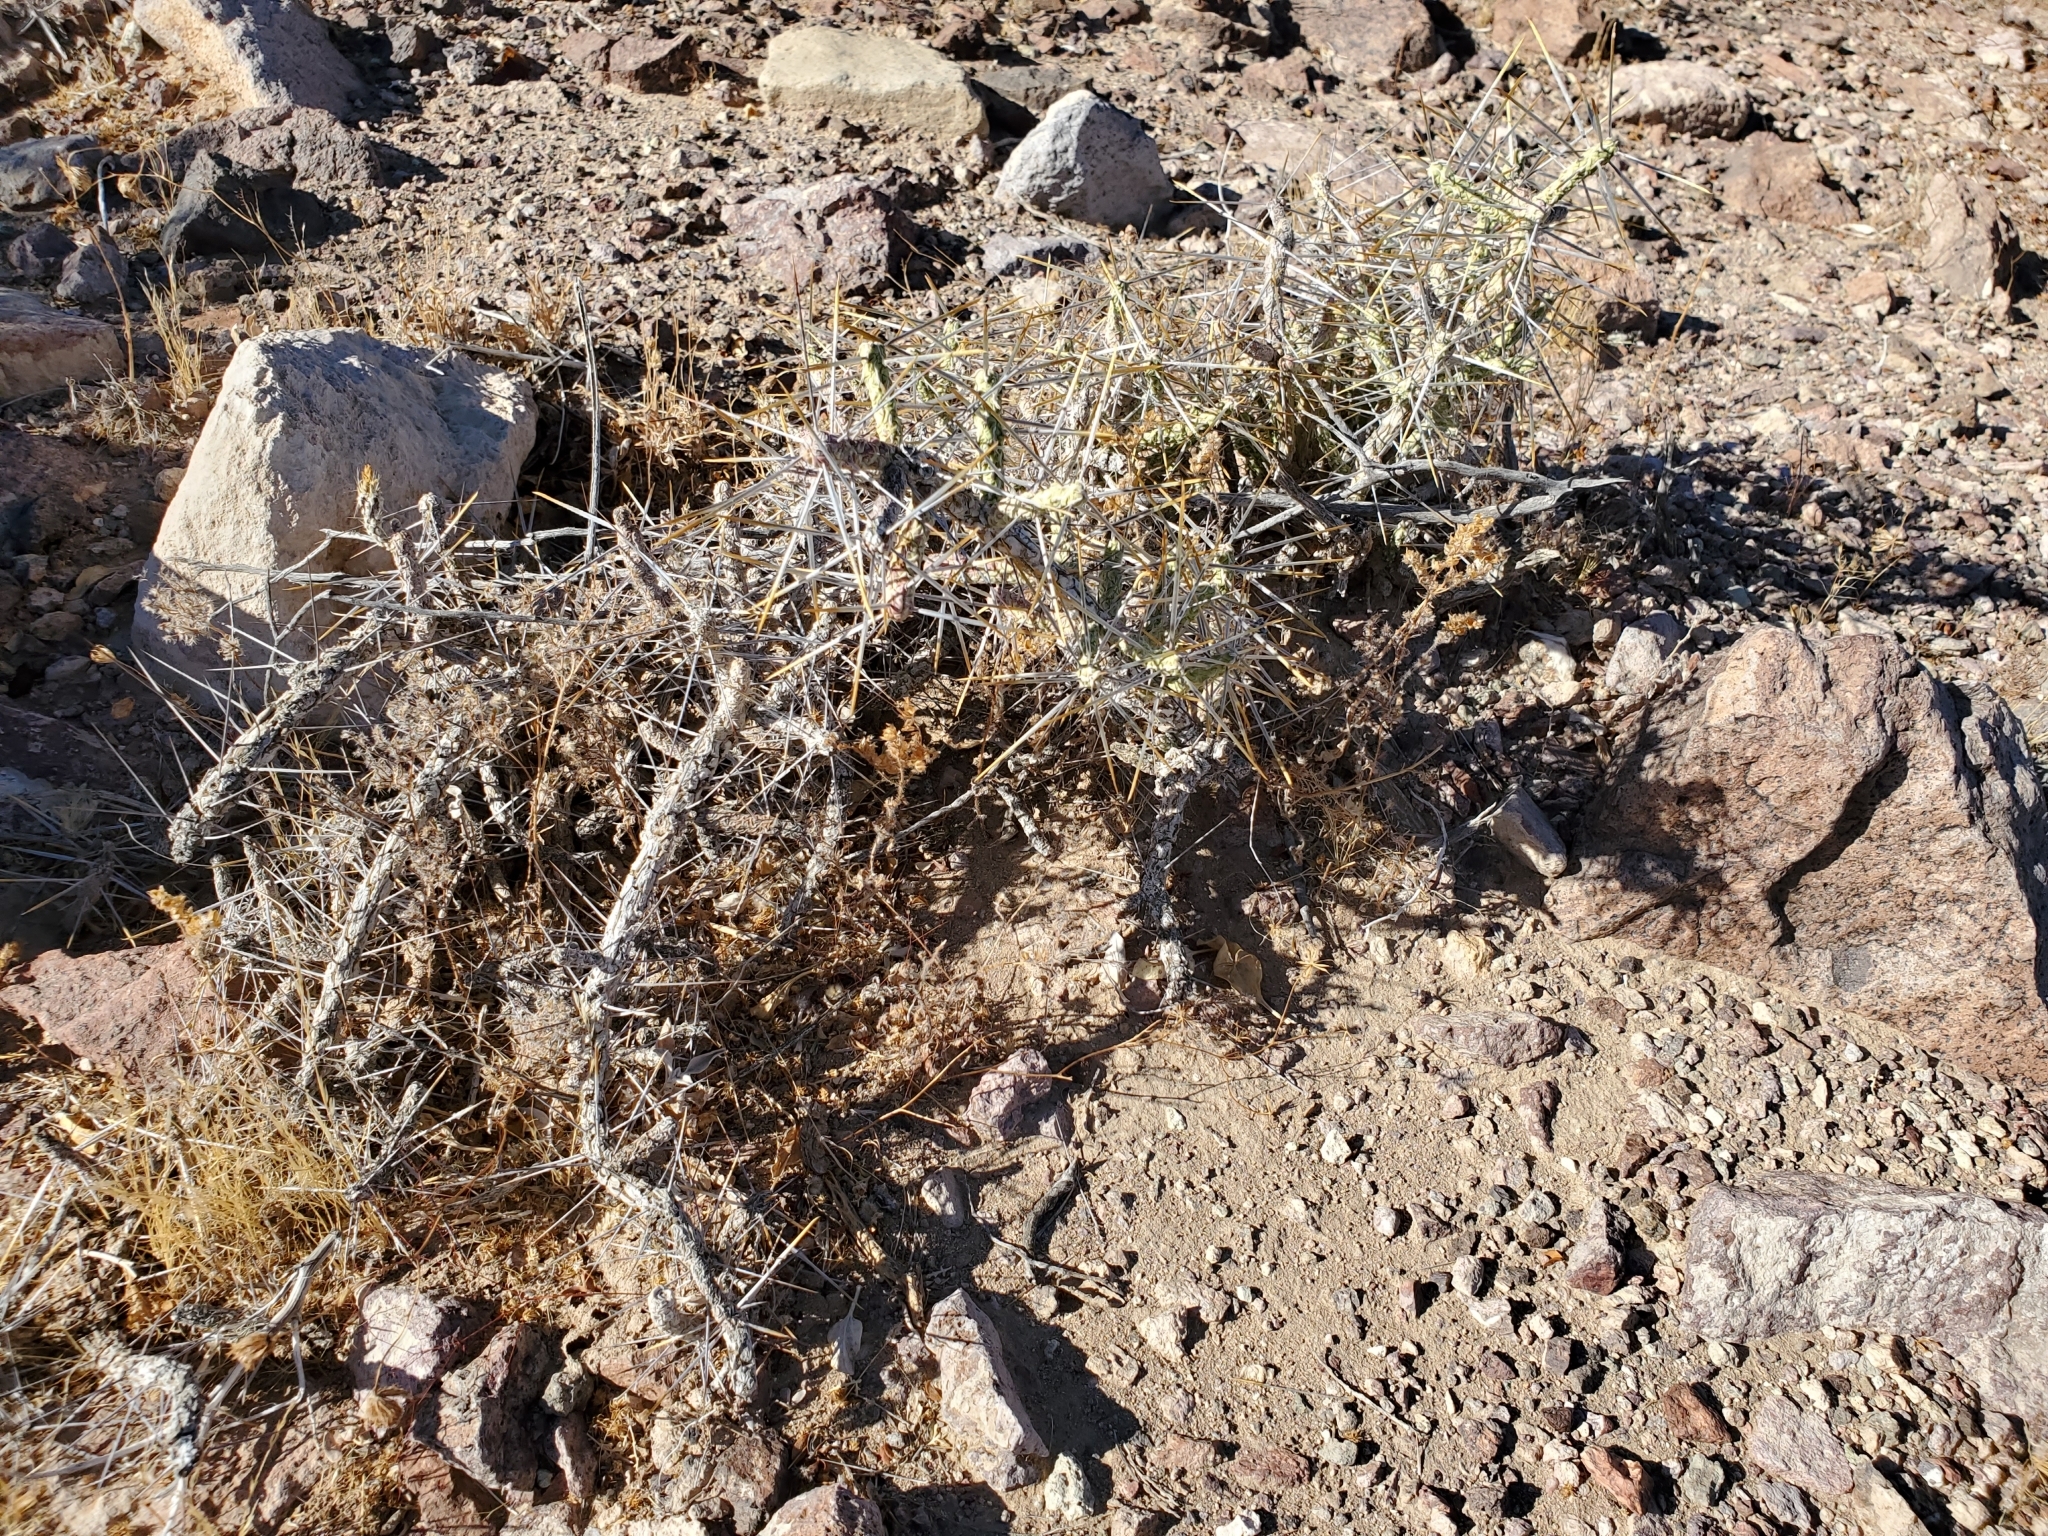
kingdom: Plantae
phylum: Tracheophyta
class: Magnoliopsida
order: Caryophyllales
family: Cactaceae
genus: Cylindropuntia
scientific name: Cylindropuntia ramosissima
